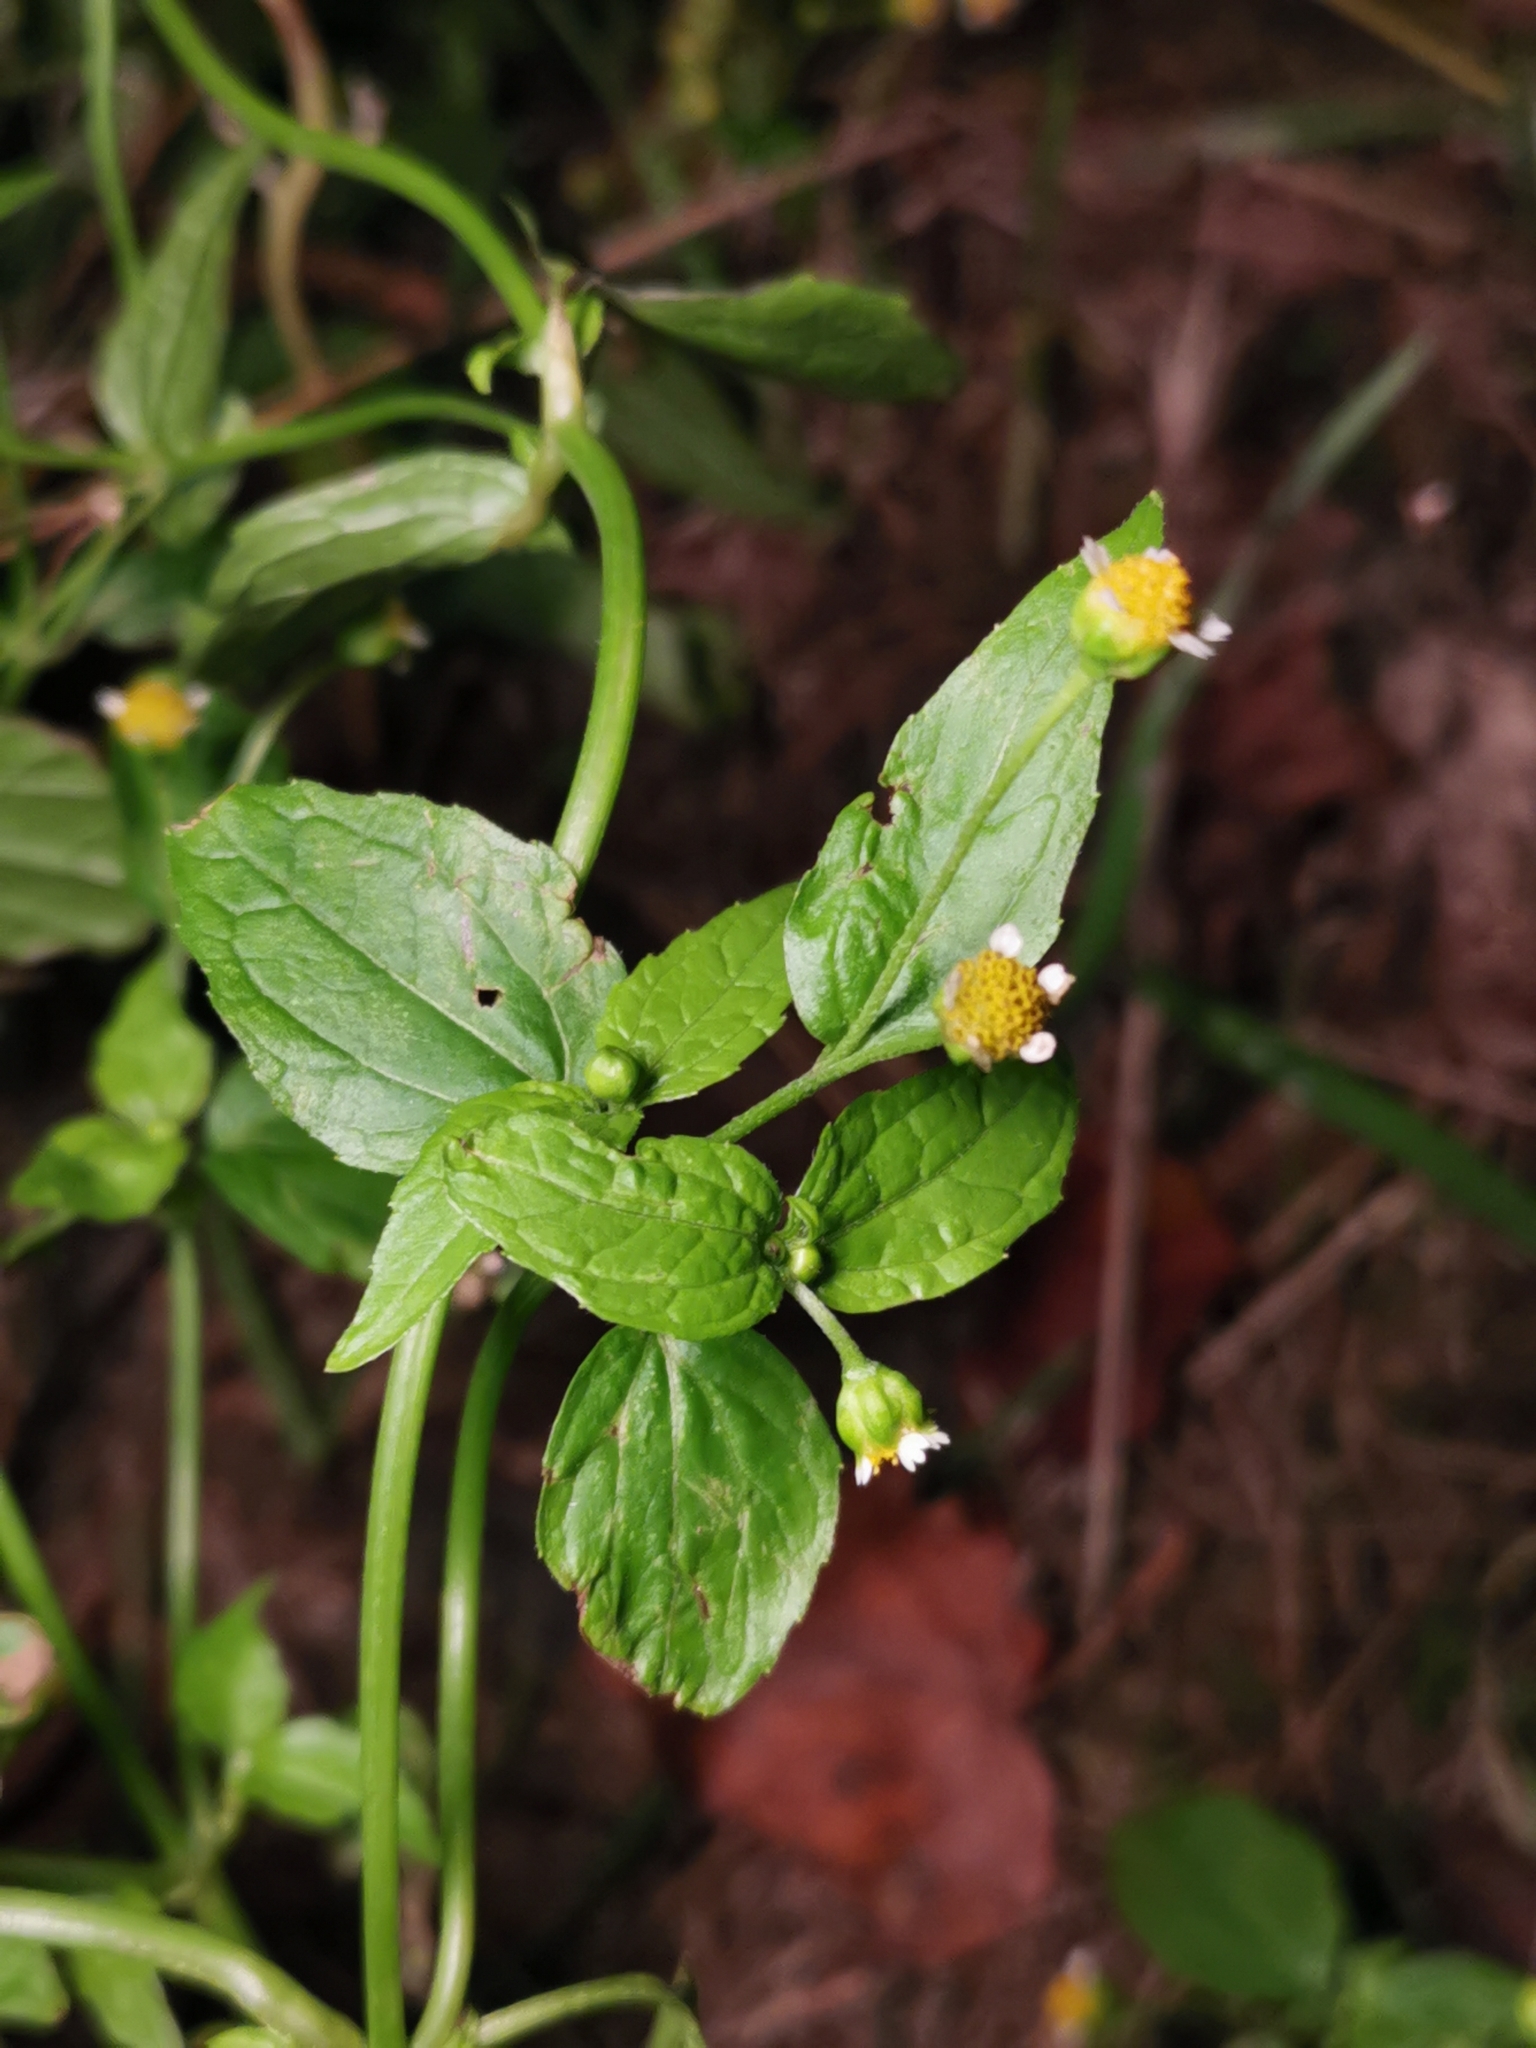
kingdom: Plantae
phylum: Tracheophyta
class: Magnoliopsida
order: Asterales
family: Asteraceae
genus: Galinsoga
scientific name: Galinsoga parviflora
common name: Gallant soldier
